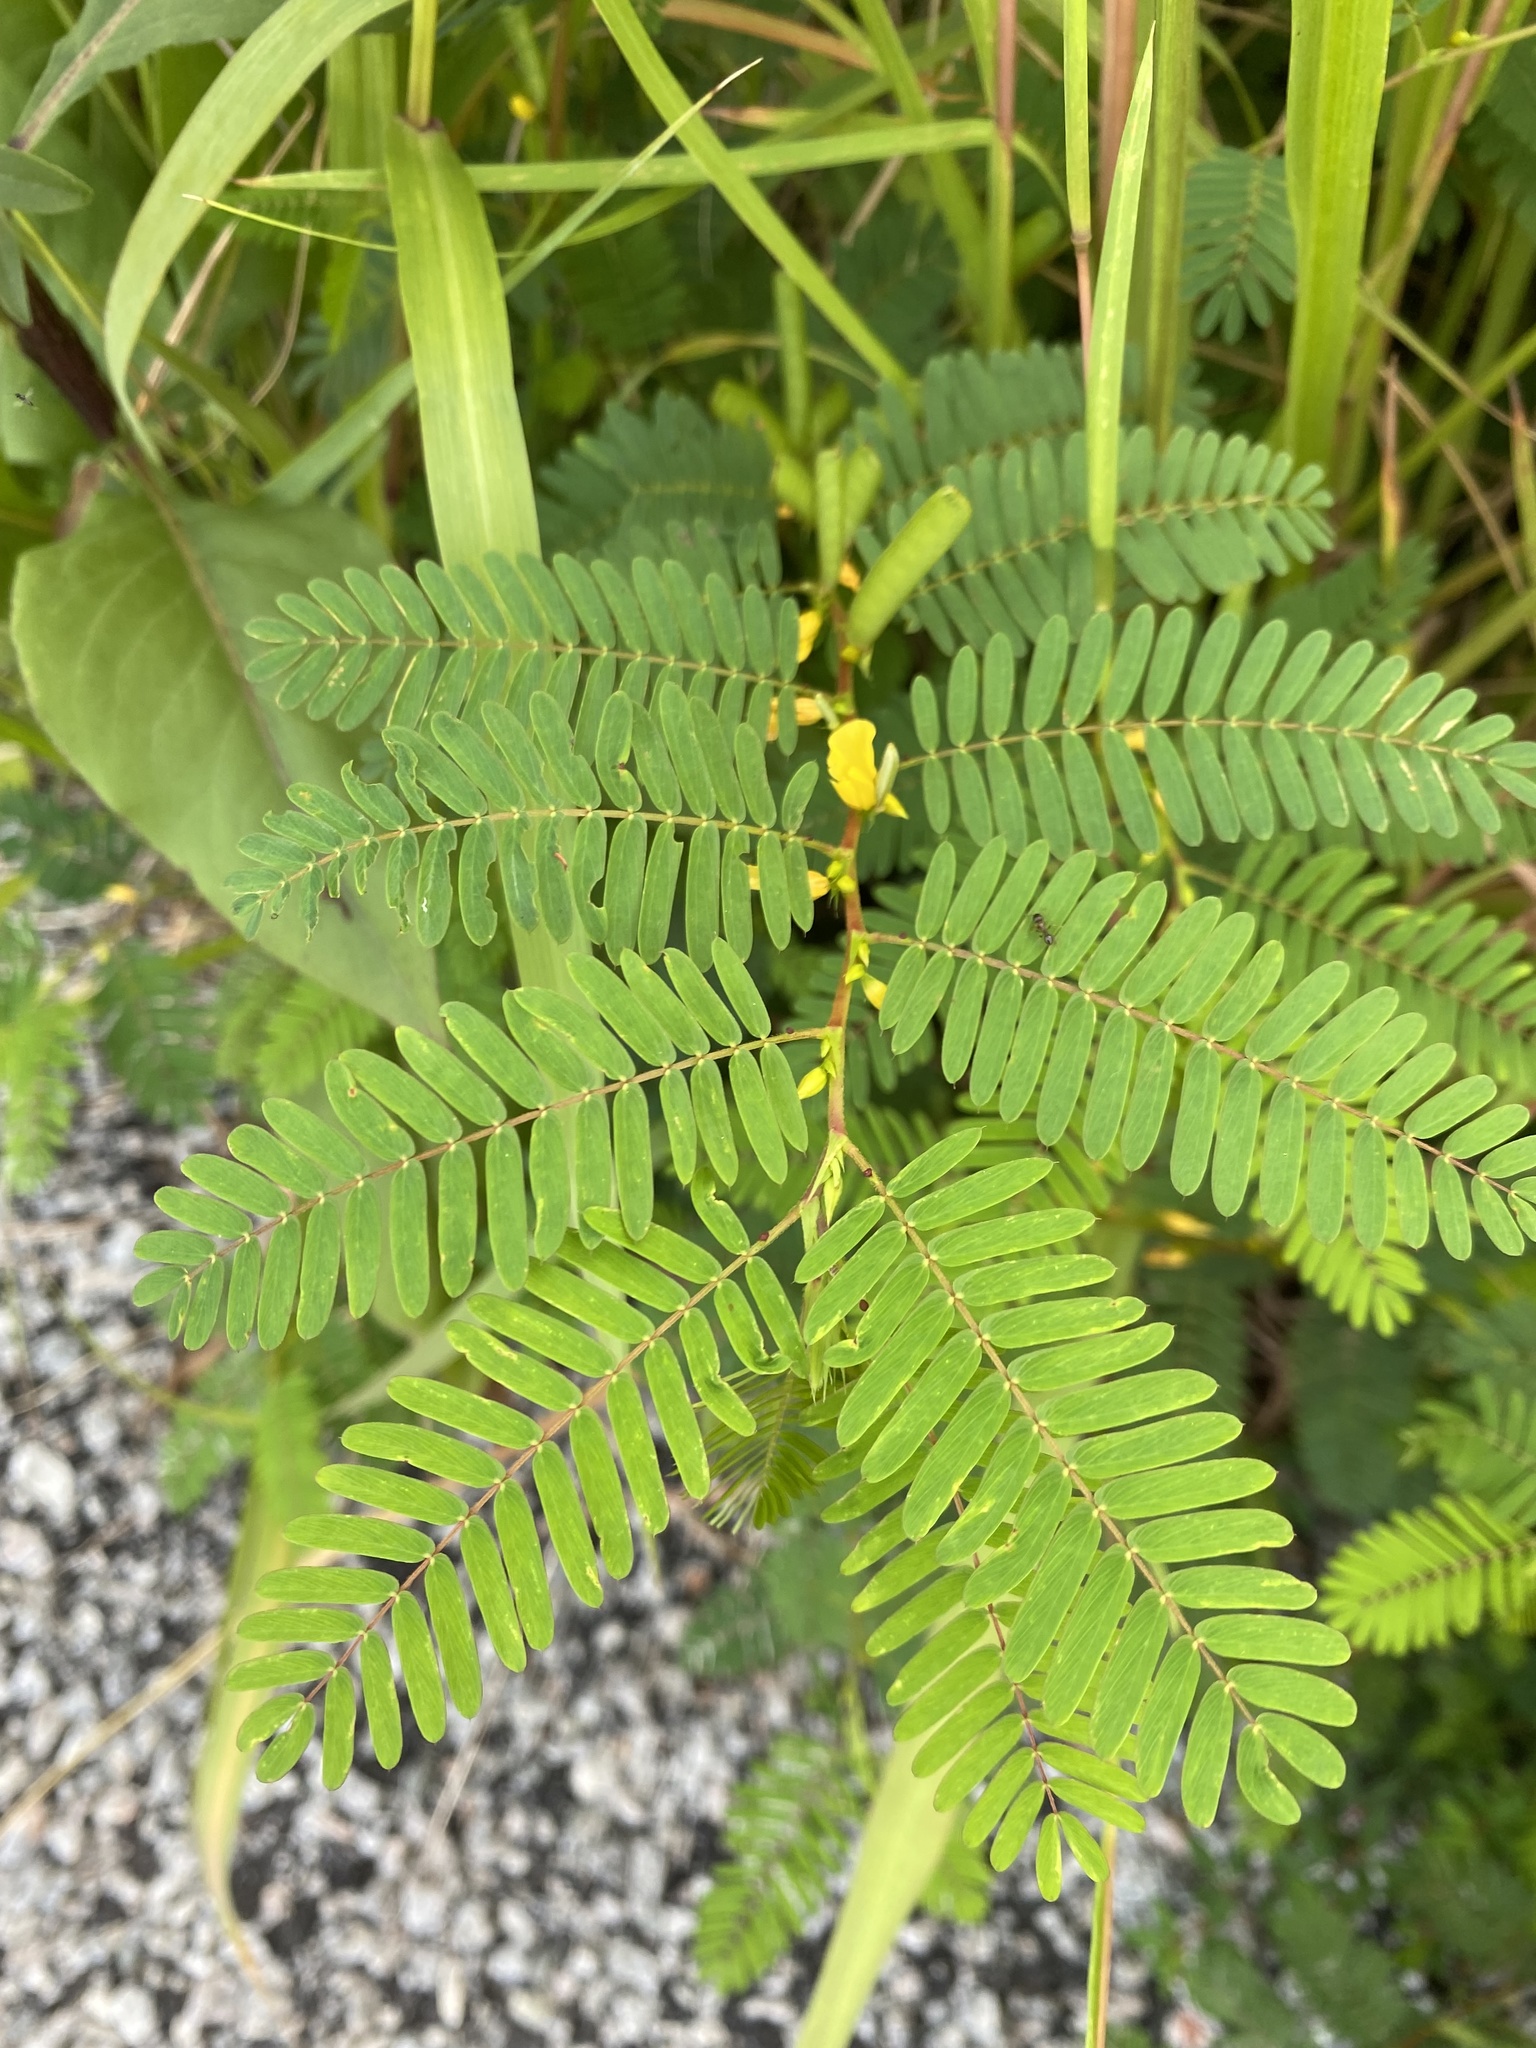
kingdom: Plantae
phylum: Tracheophyta
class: Magnoliopsida
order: Fabales
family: Fabaceae
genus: Chamaecrista
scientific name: Chamaecrista nictitans
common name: Sensitive cassia
